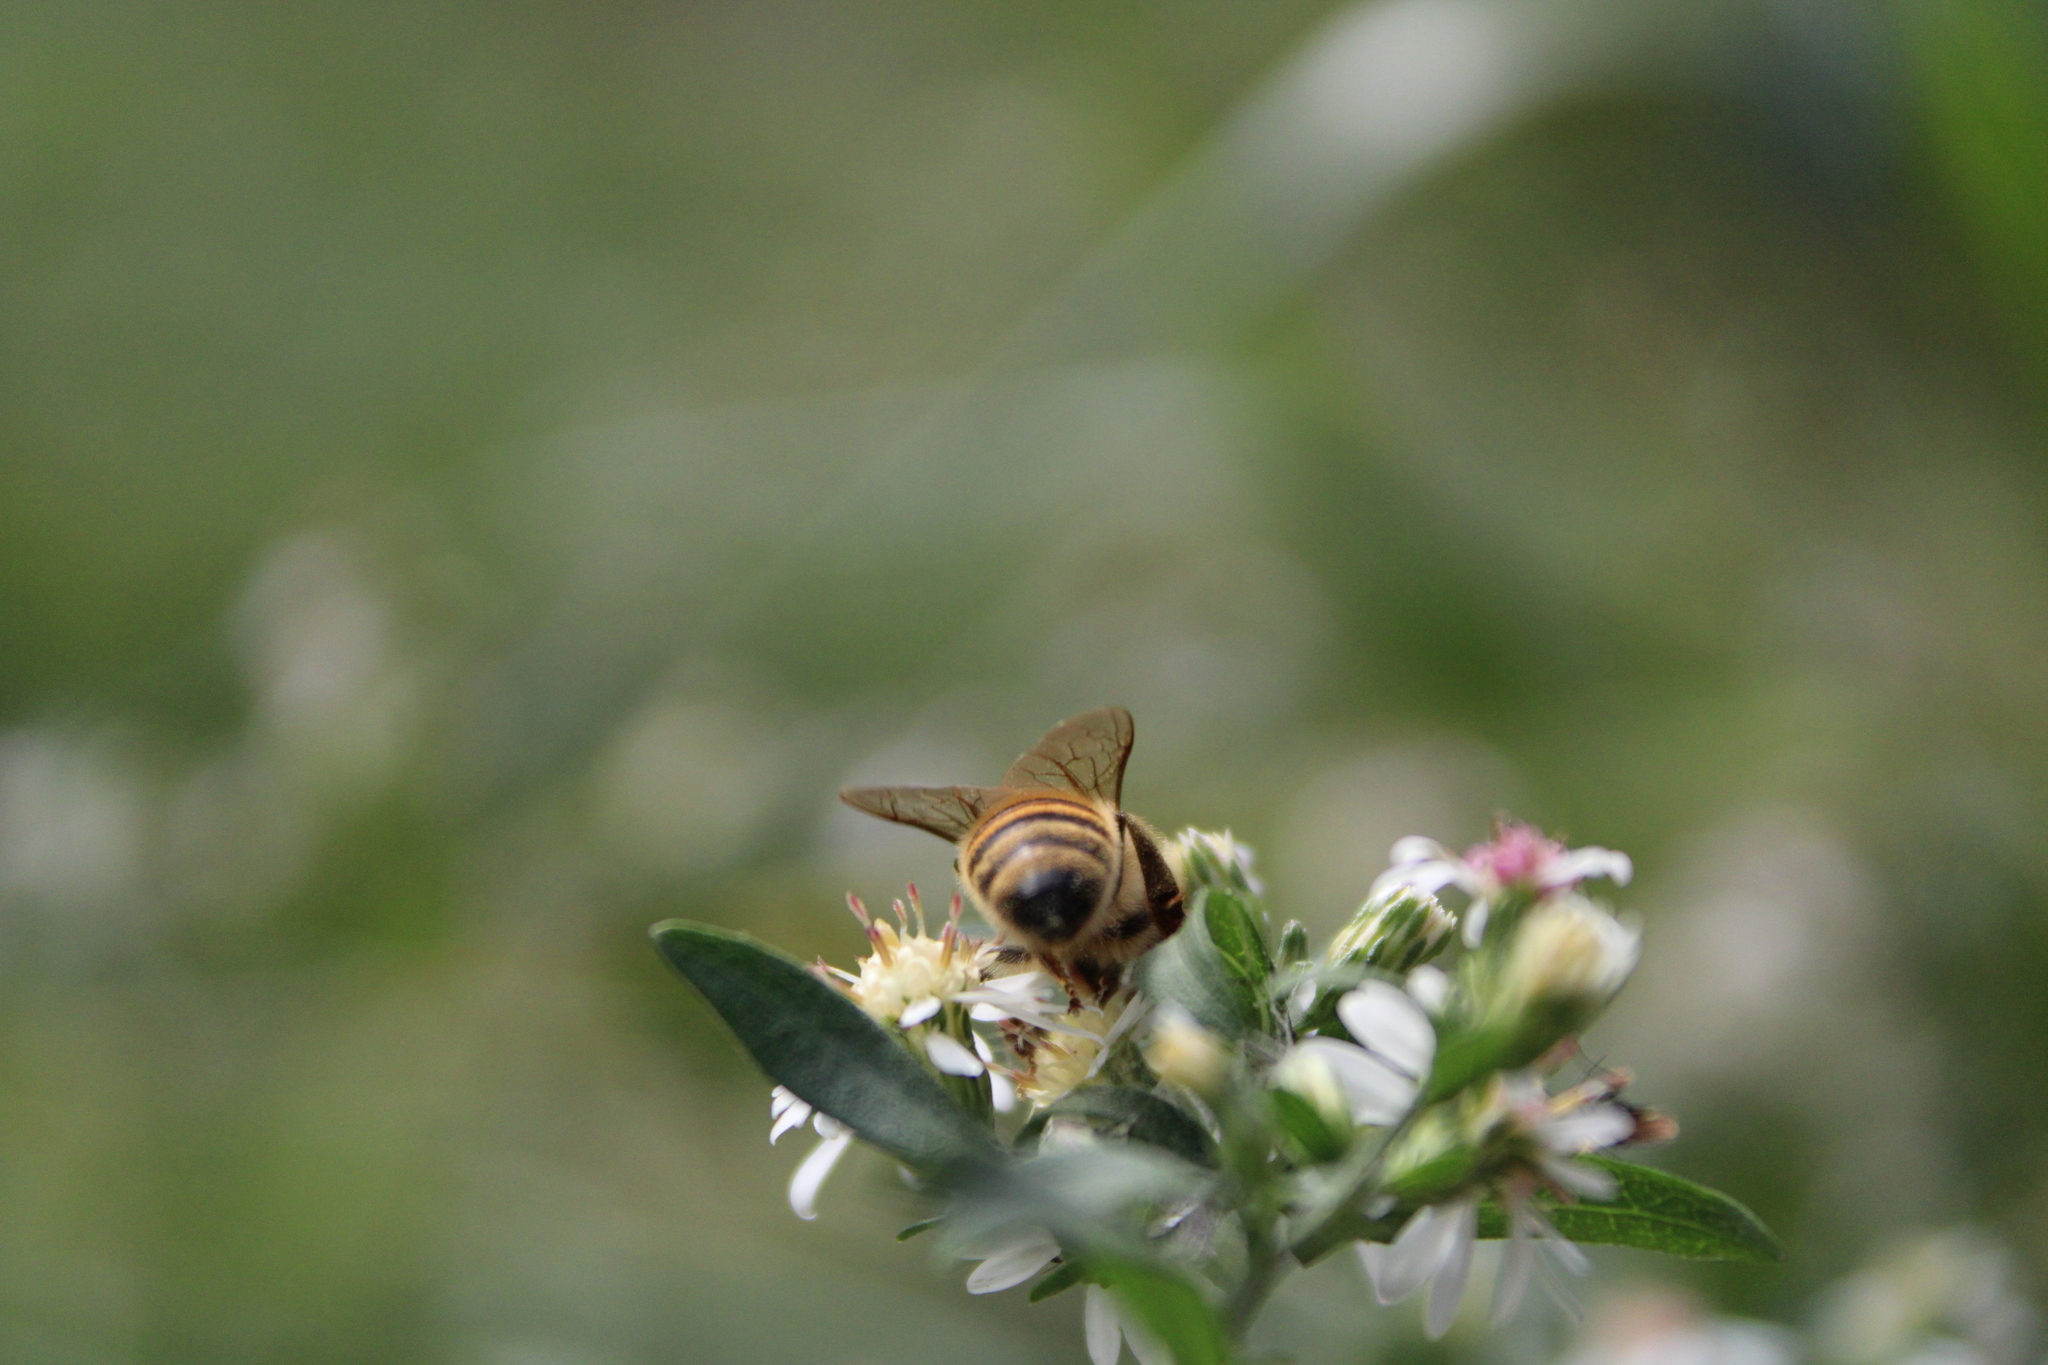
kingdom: Animalia
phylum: Arthropoda
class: Insecta
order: Hymenoptera
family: Apidae
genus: Apis
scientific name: Apis mellifera
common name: Honey bee
